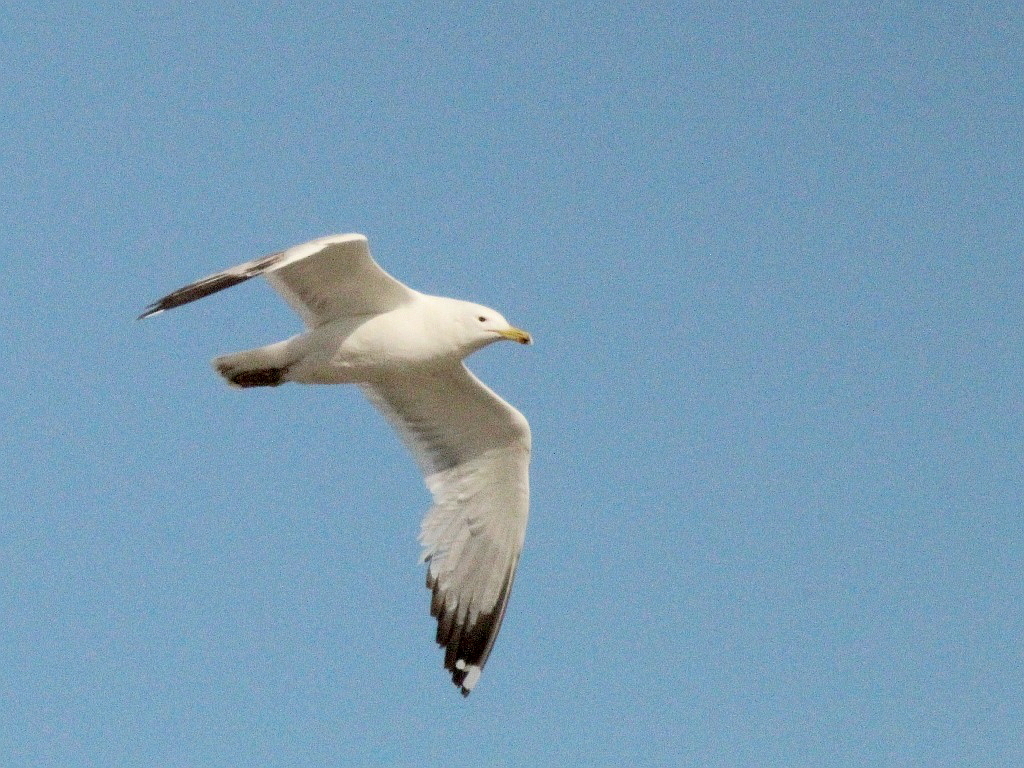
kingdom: Animalia
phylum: Chordata
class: Aves
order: Charadriiformes
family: Laridae
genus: Larus
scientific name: Larus cachinnans
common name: Caspian gull
